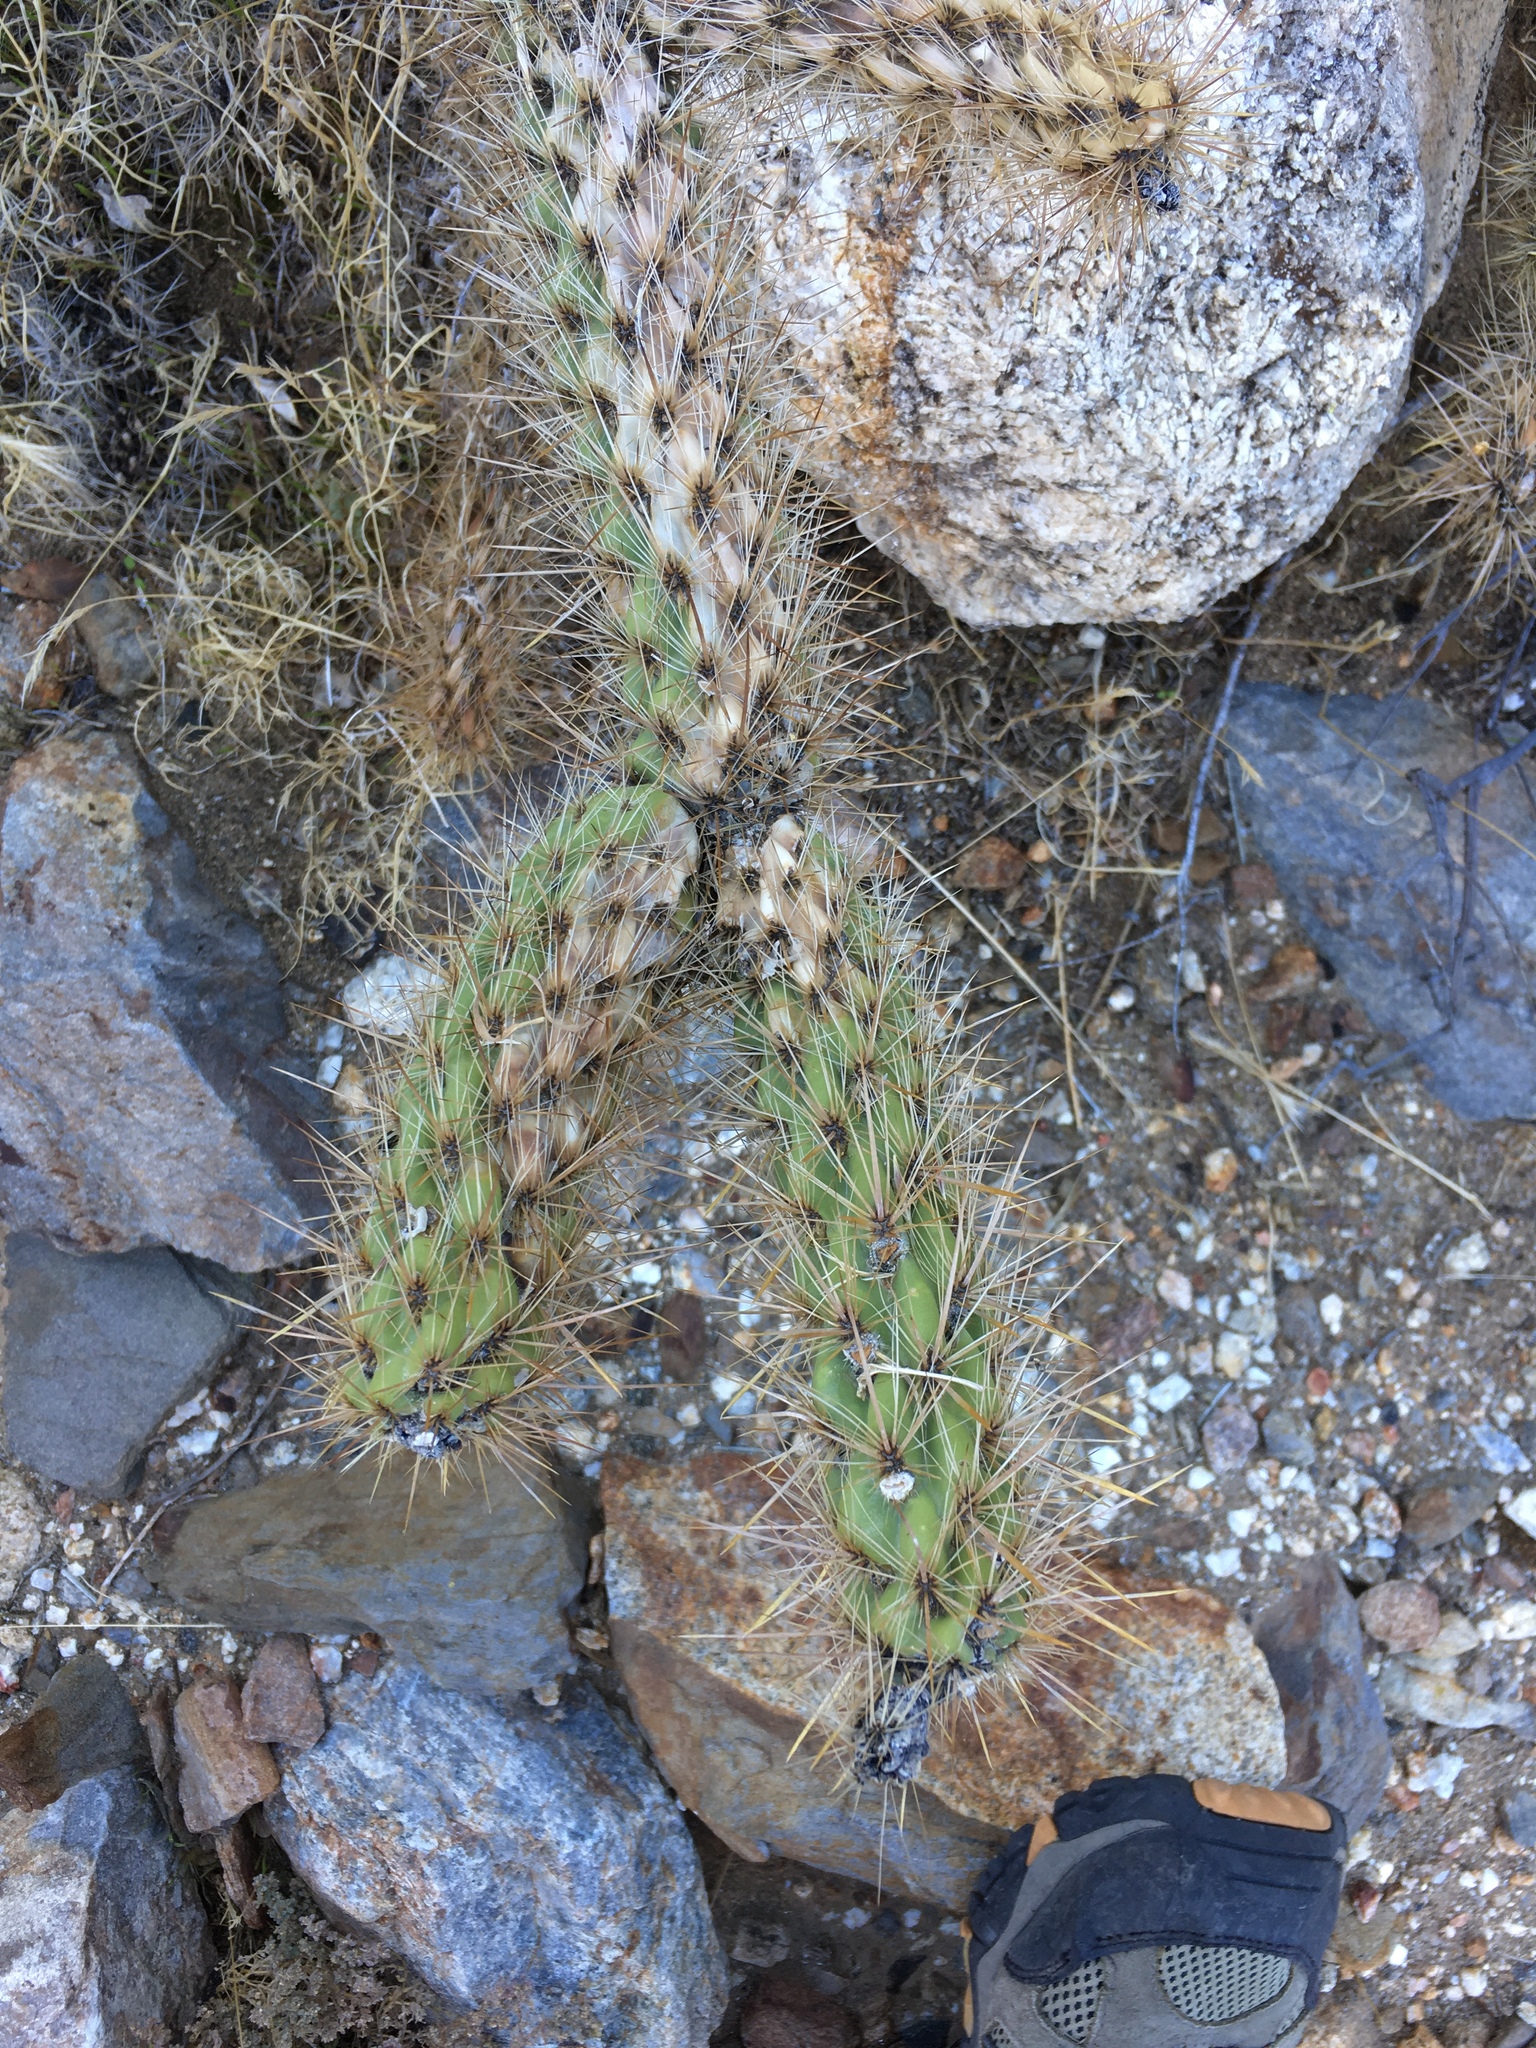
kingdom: Plantae
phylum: Tracheophyta
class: Magnoliopsida
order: Caryophyllales
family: Cactaceae
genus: Cylindropuntia
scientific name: Cylindropuntia ganderi
